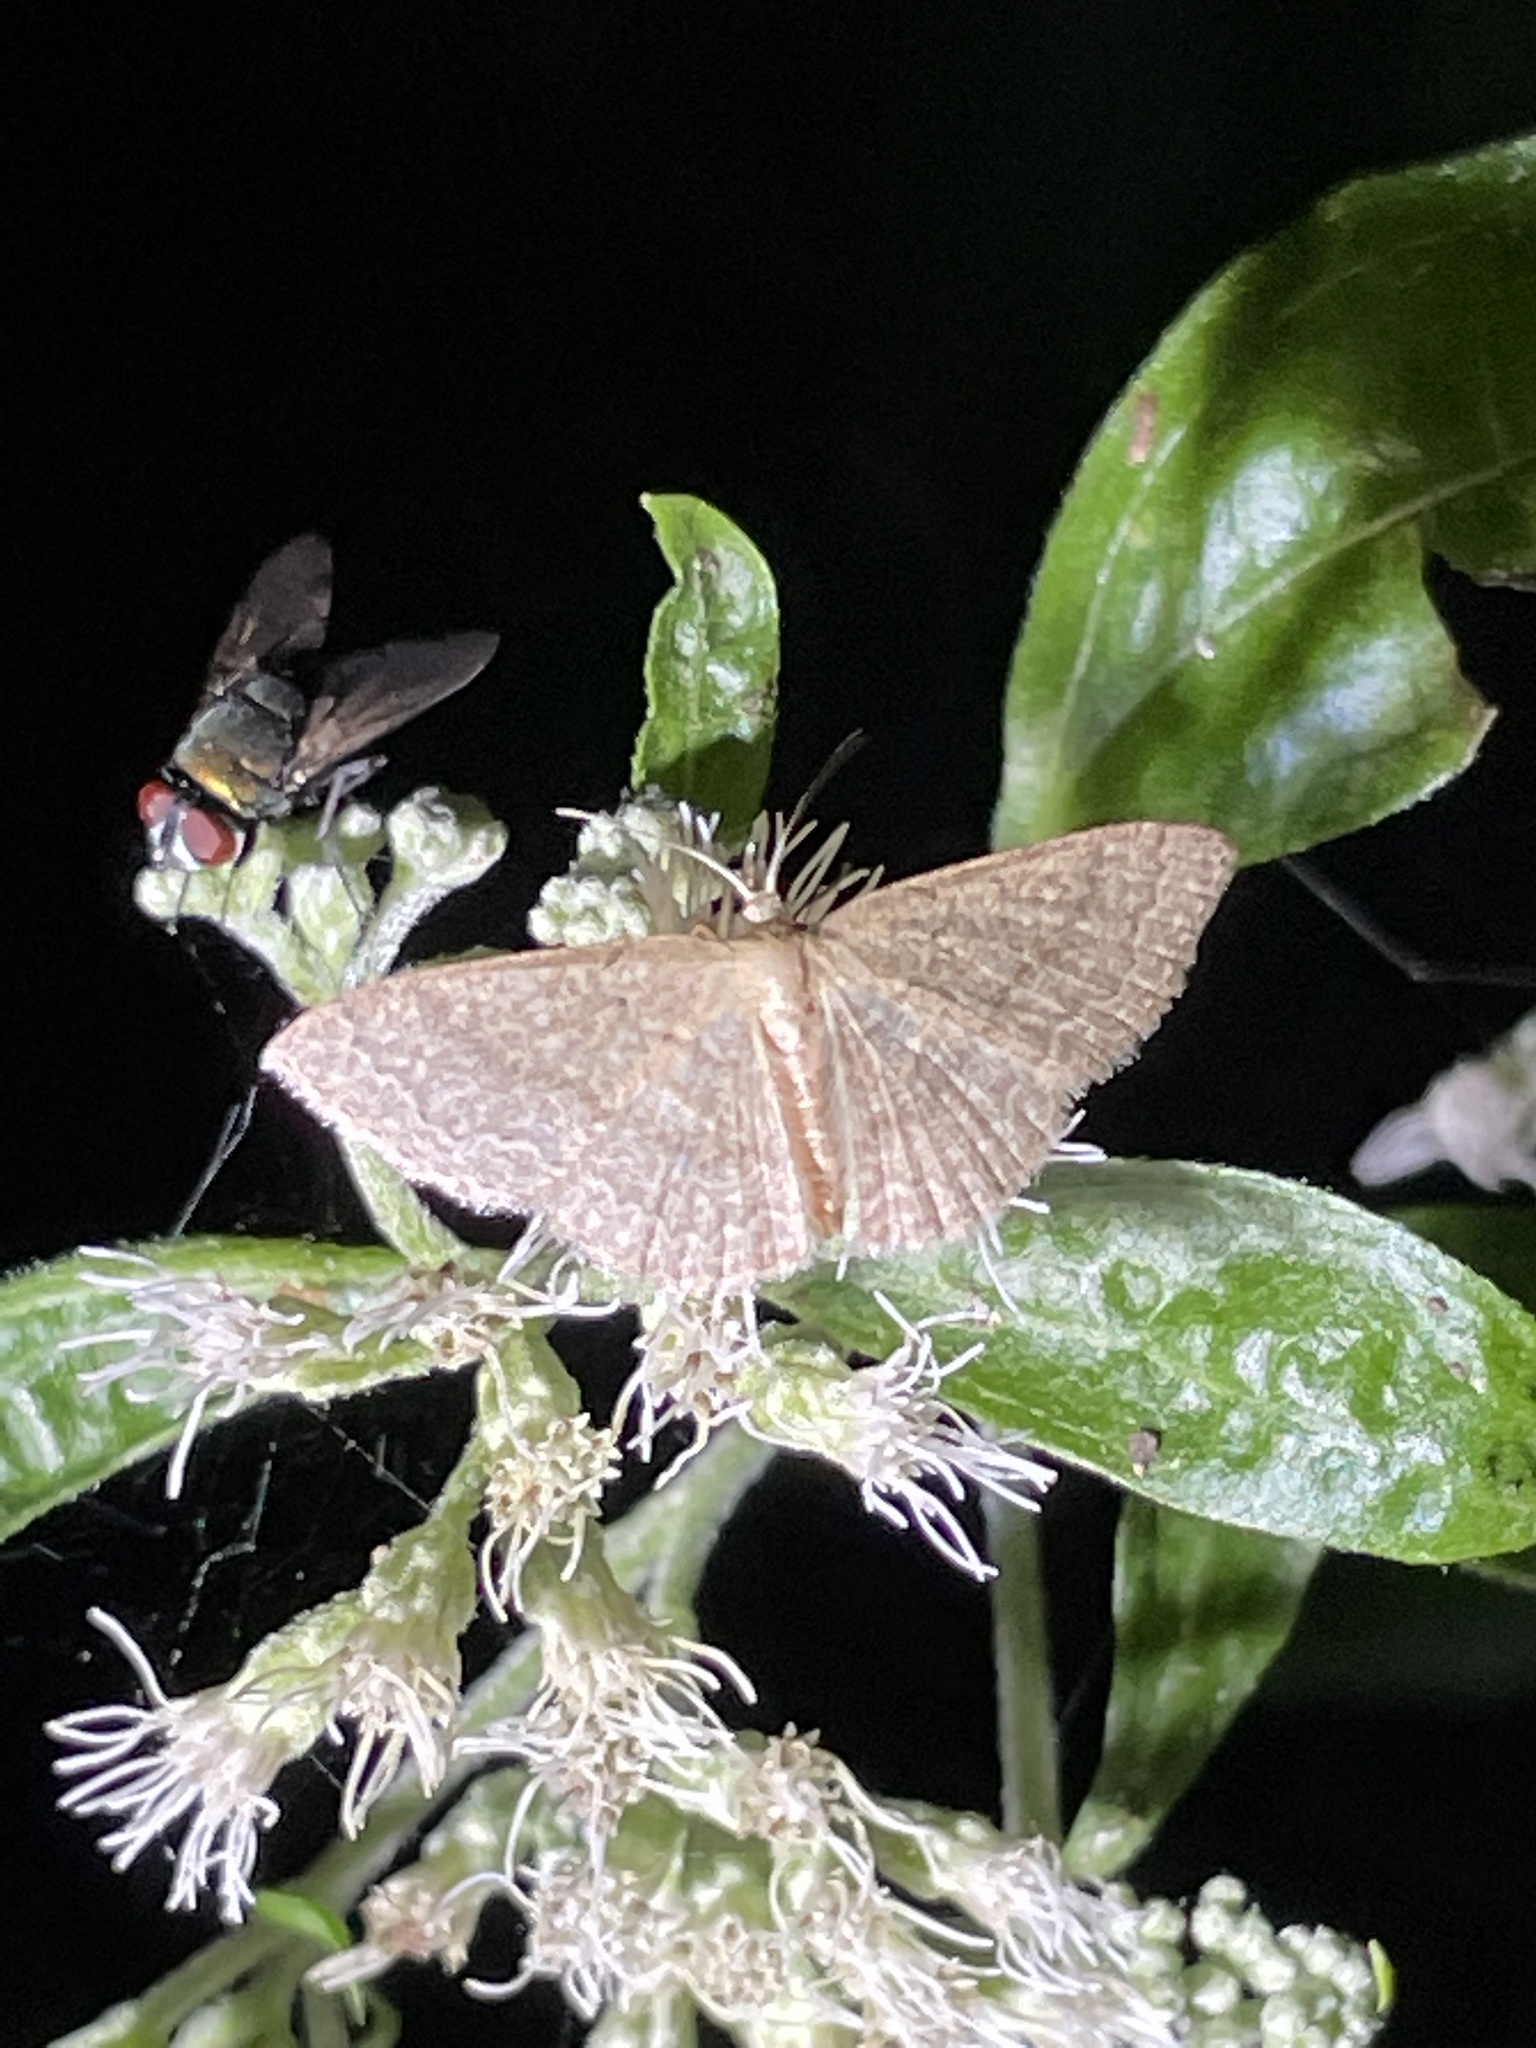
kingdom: Animalia
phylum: Arthropoda
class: Insecta
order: Lepidoptera
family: Geometridae
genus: Pleuroprucha
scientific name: Pleuroprucha insulsaria
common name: Common tan wave
